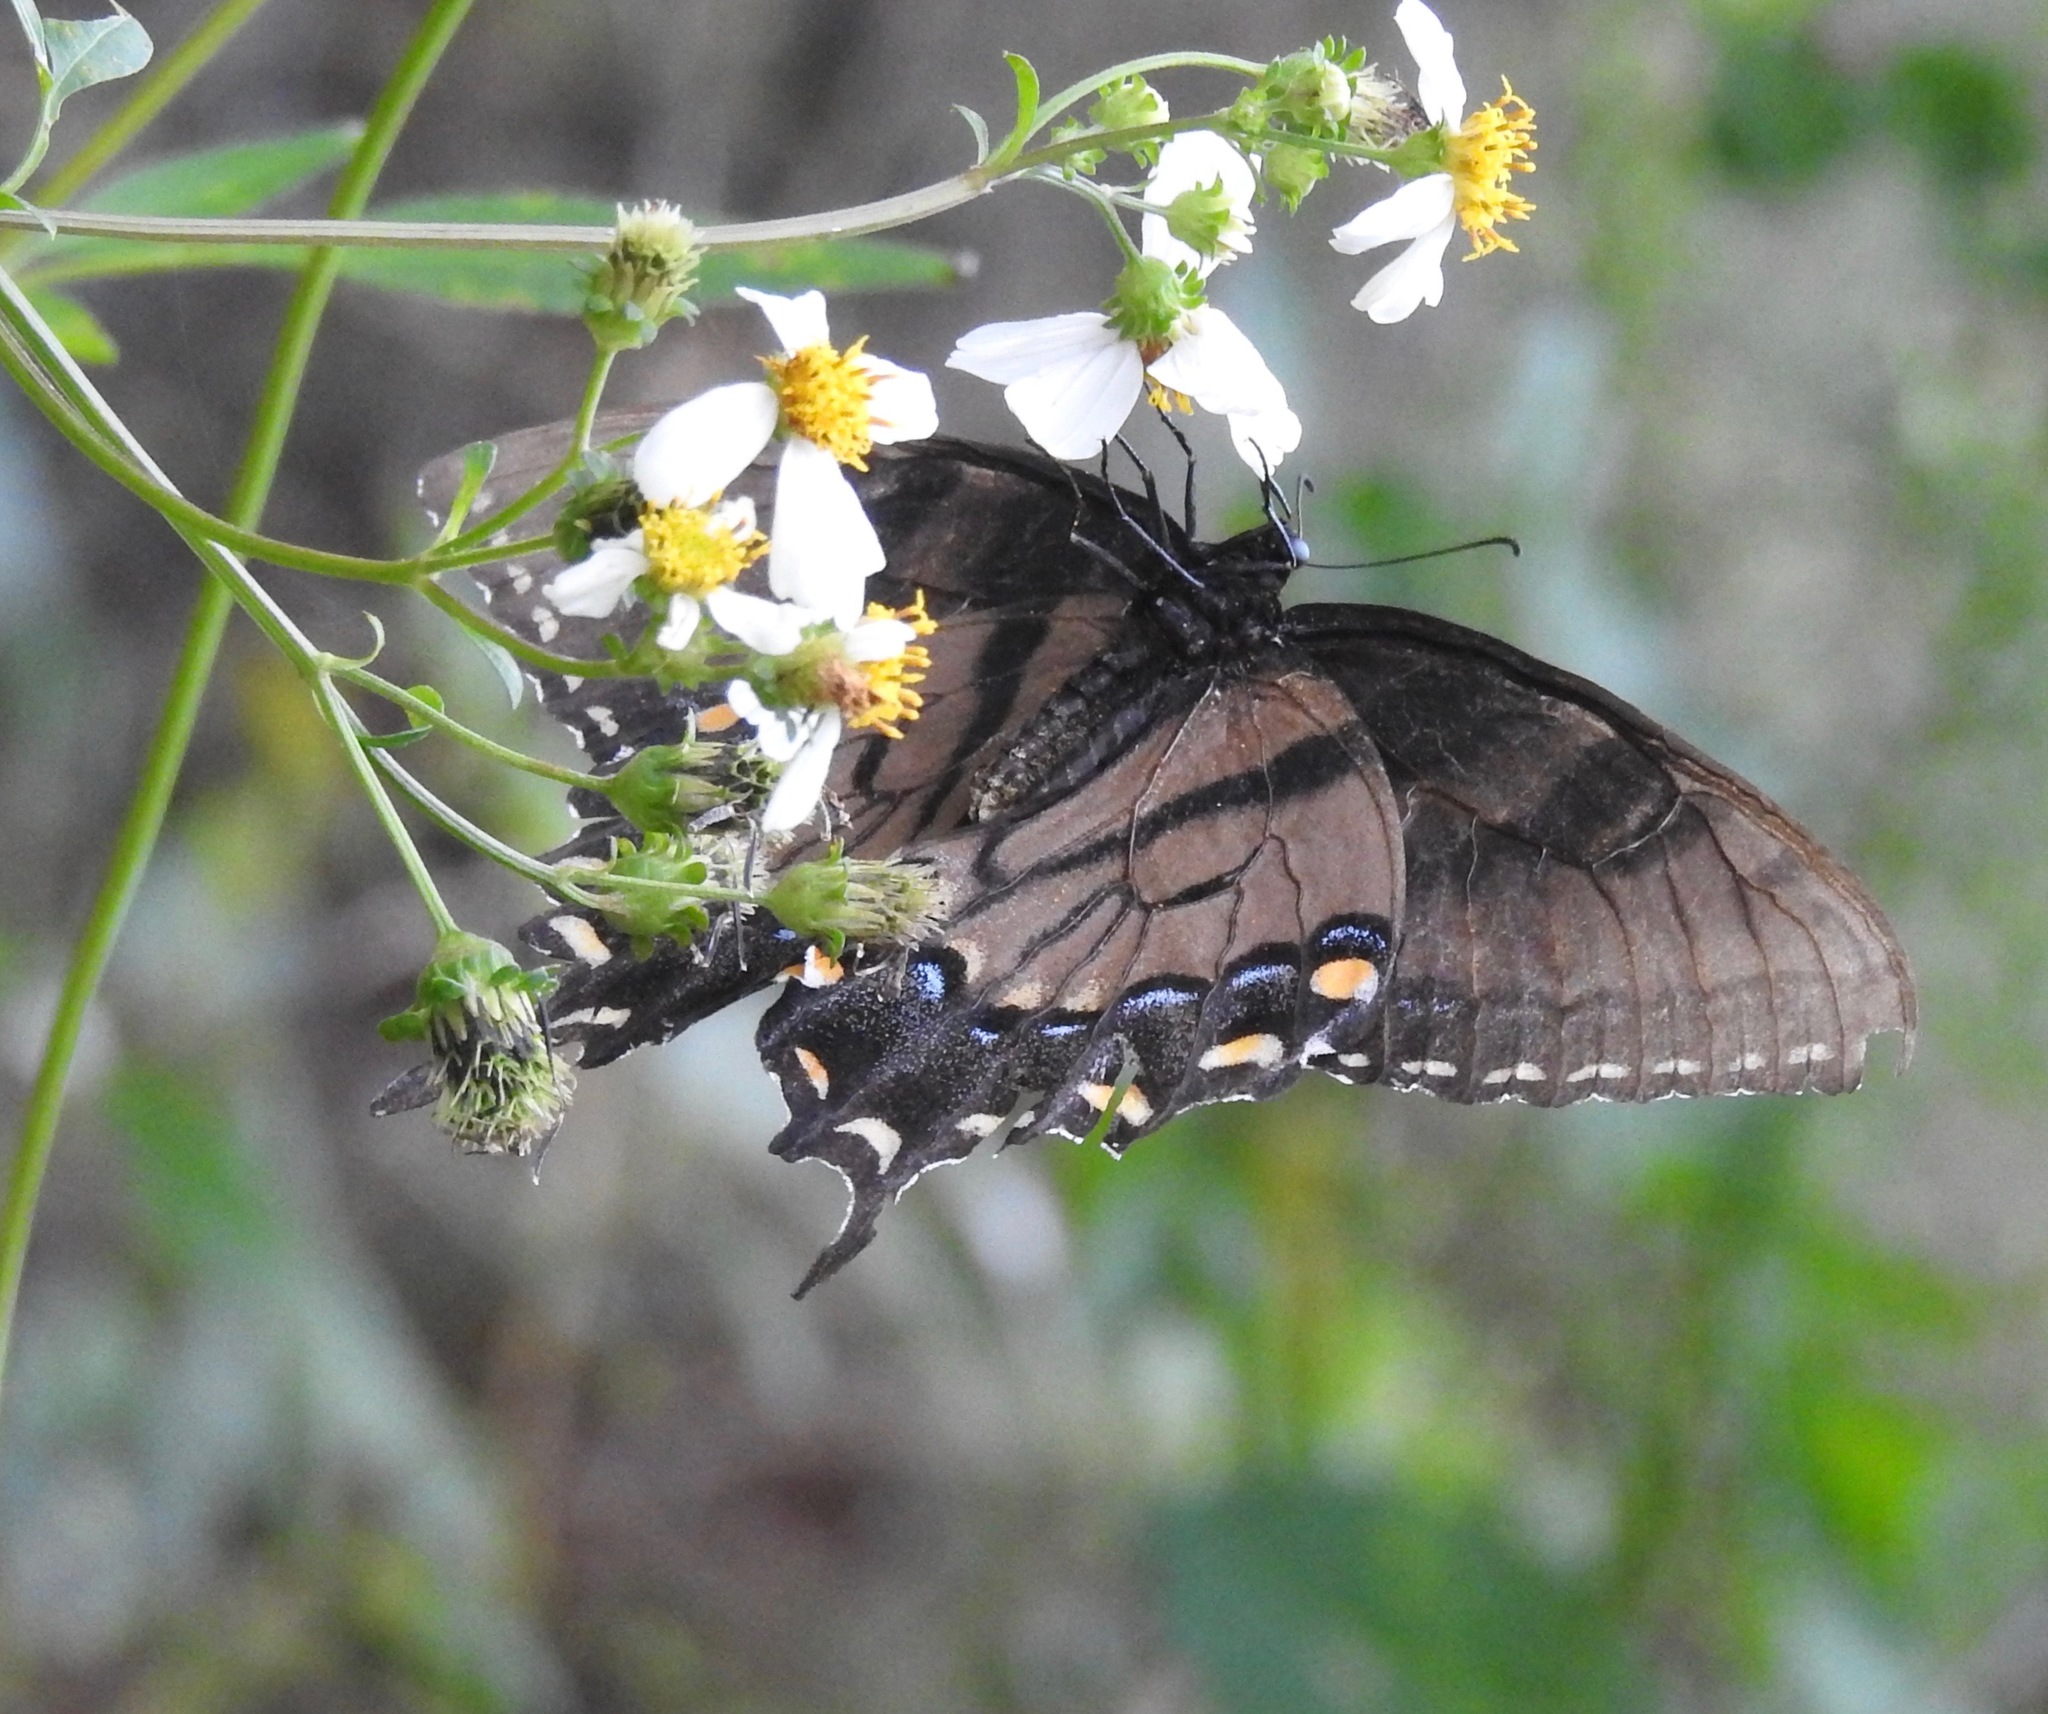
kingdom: Animalia
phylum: Arthropoda
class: Insecta
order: Lepidoptera
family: Papilionidae
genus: Papilio
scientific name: Papilio glaucus
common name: Tiger swallowtail
